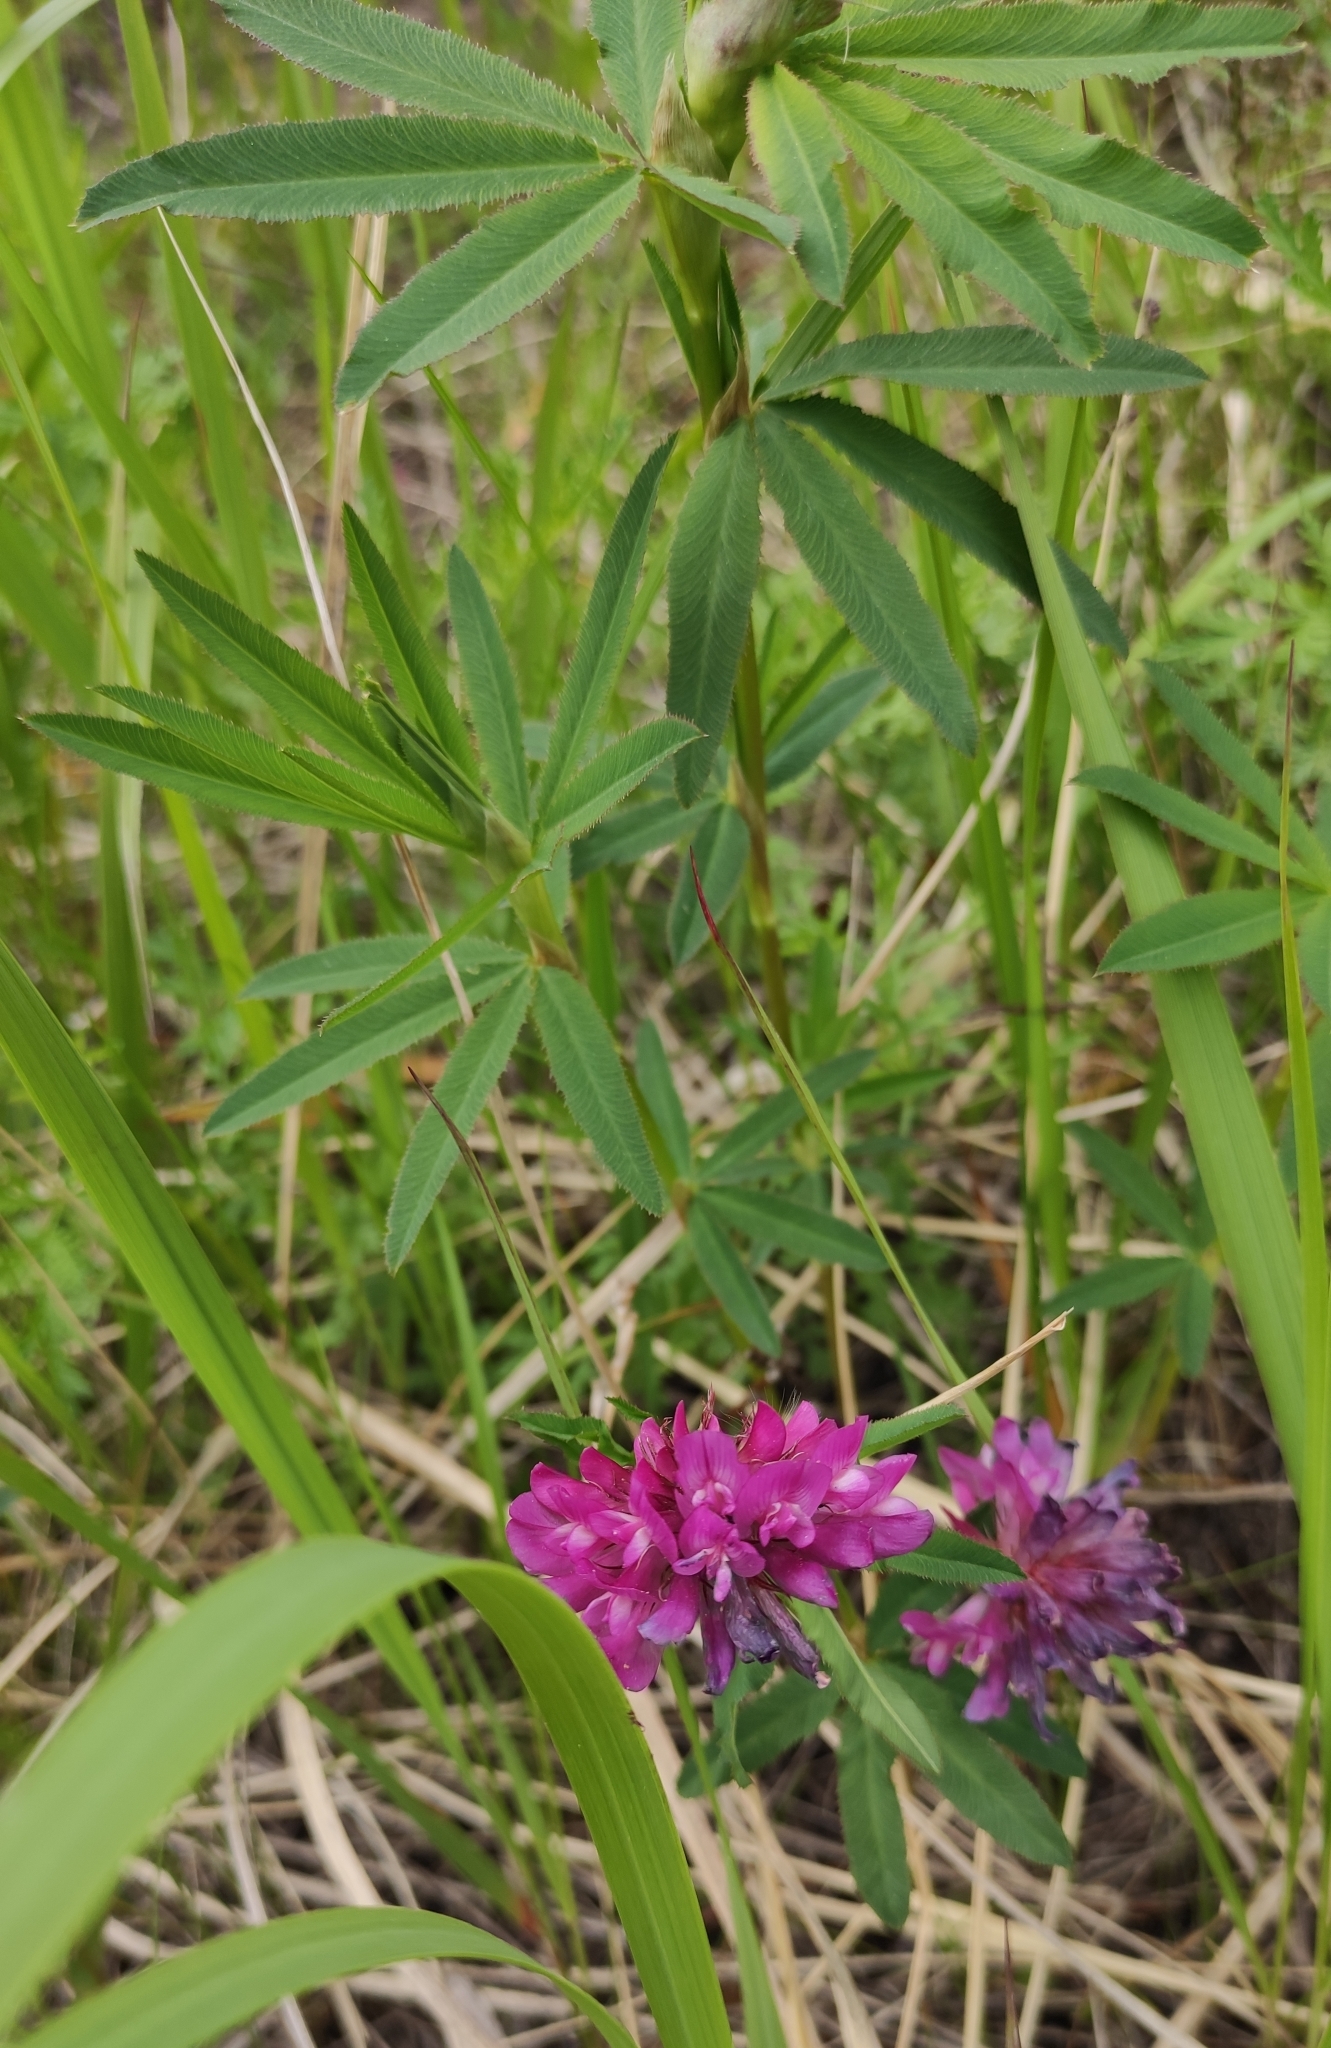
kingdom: Plantae
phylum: Tracheophyta
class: Magnoliopsida
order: Fabales
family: Fabaceae
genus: Trifolium
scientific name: Trifolium lupinaster
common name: Lupine clover
